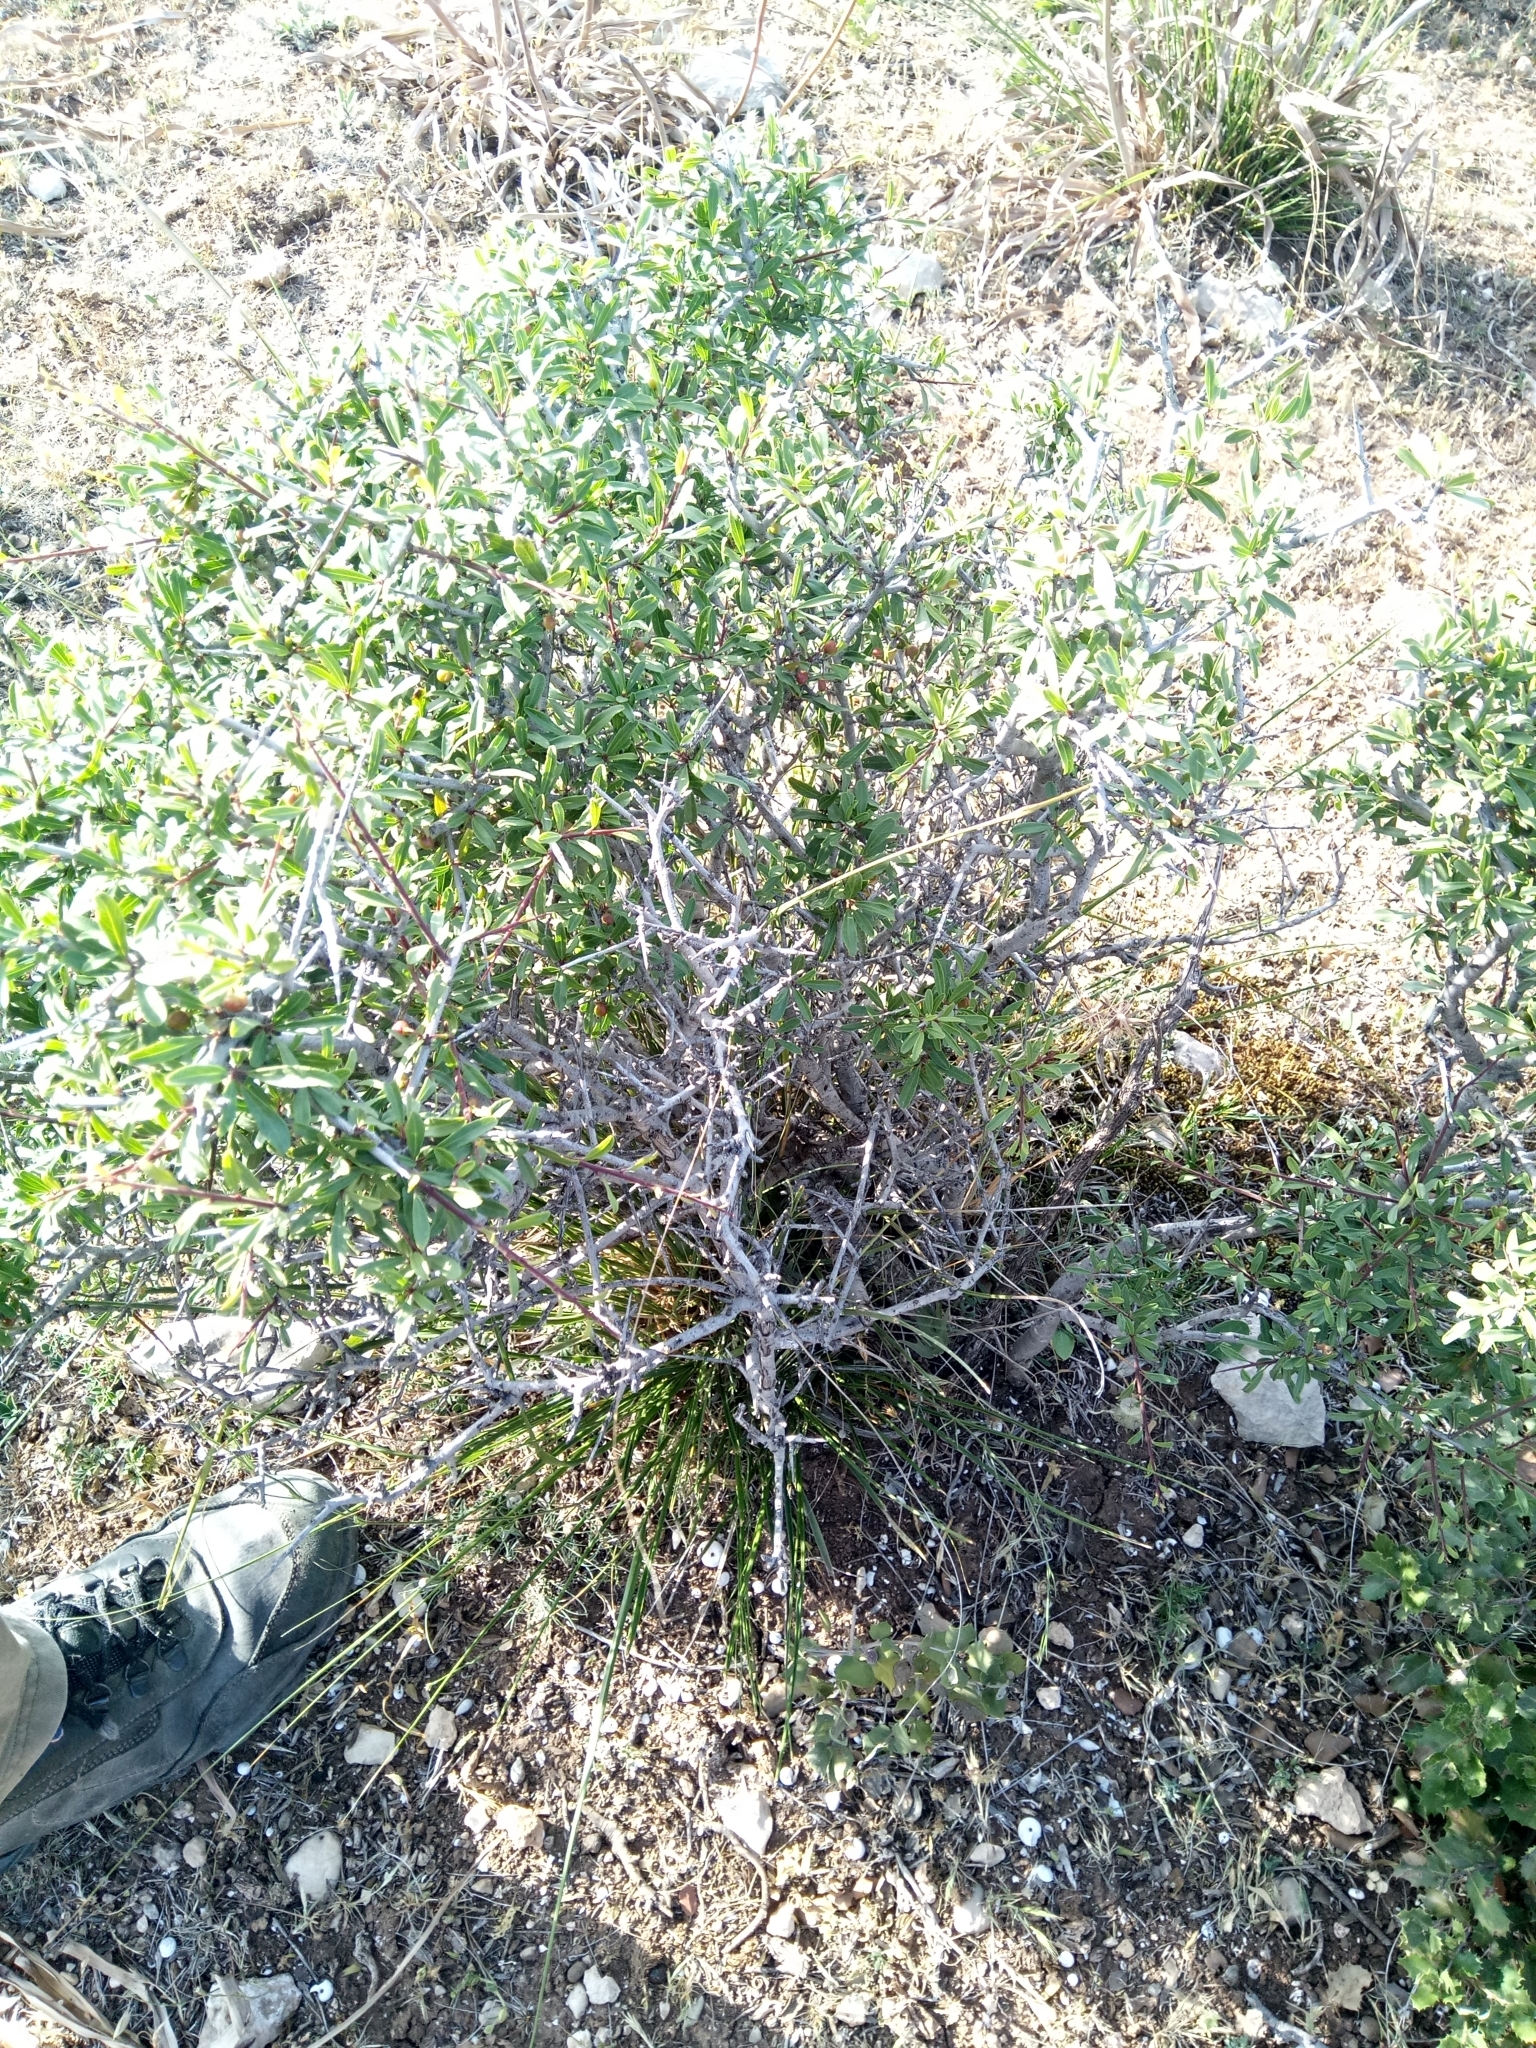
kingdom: Plantae
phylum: Tracheophyta
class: Magnoliopsida
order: Rosales
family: Rhamnaceae
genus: Rhamnus
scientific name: Rhamnus lycioides
